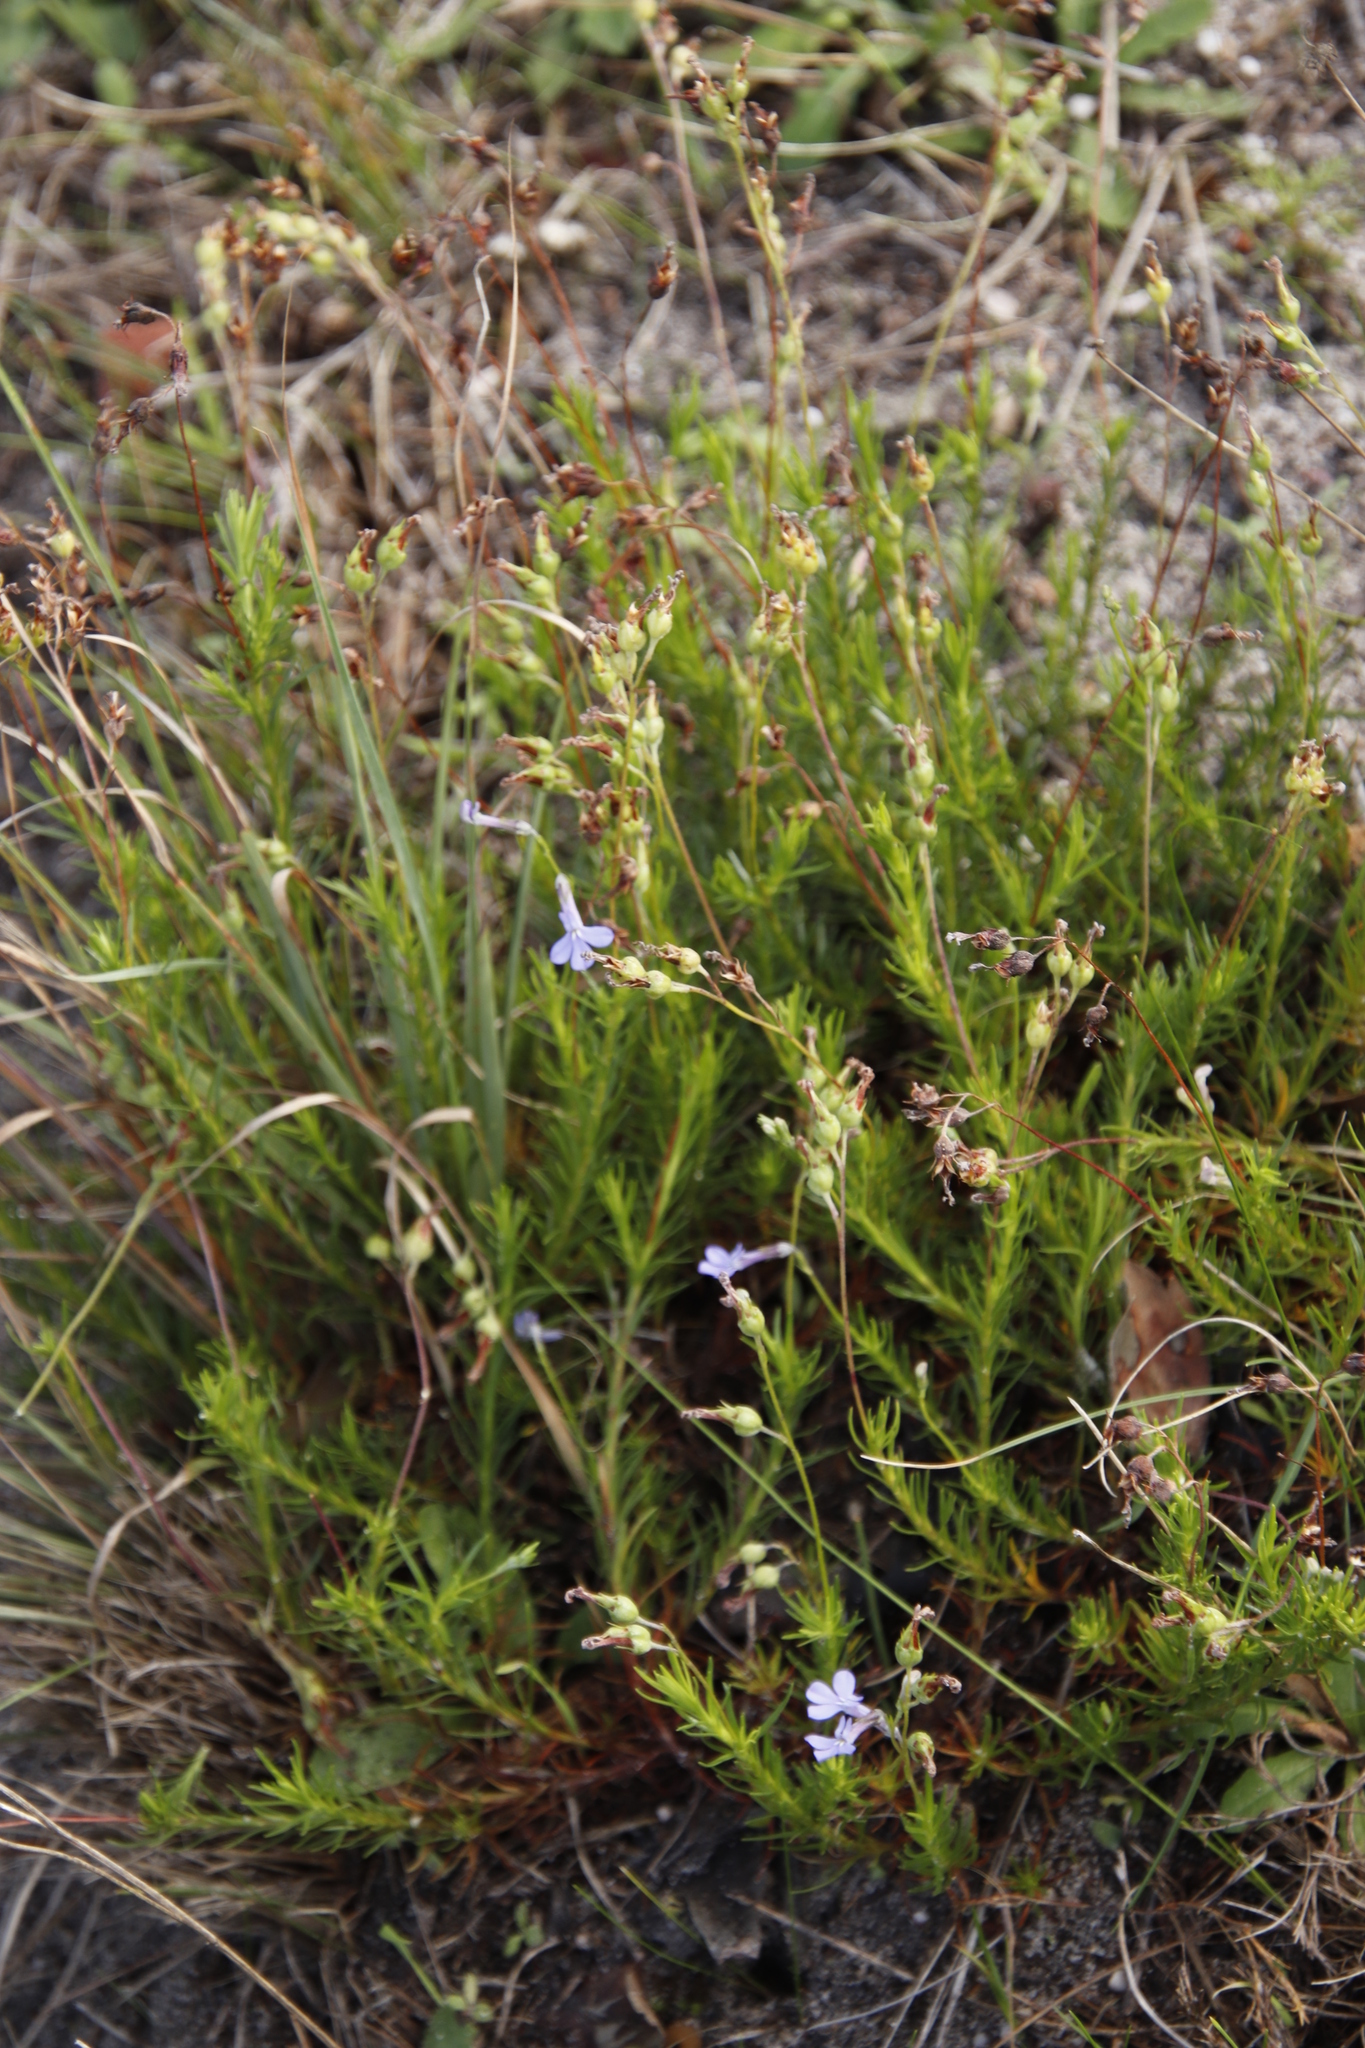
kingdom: Plantae
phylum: Tracheophyta
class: Magnoliopsida
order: Asterales
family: Campanulaceae
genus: Lobelia
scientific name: Lobelia pinifolia
